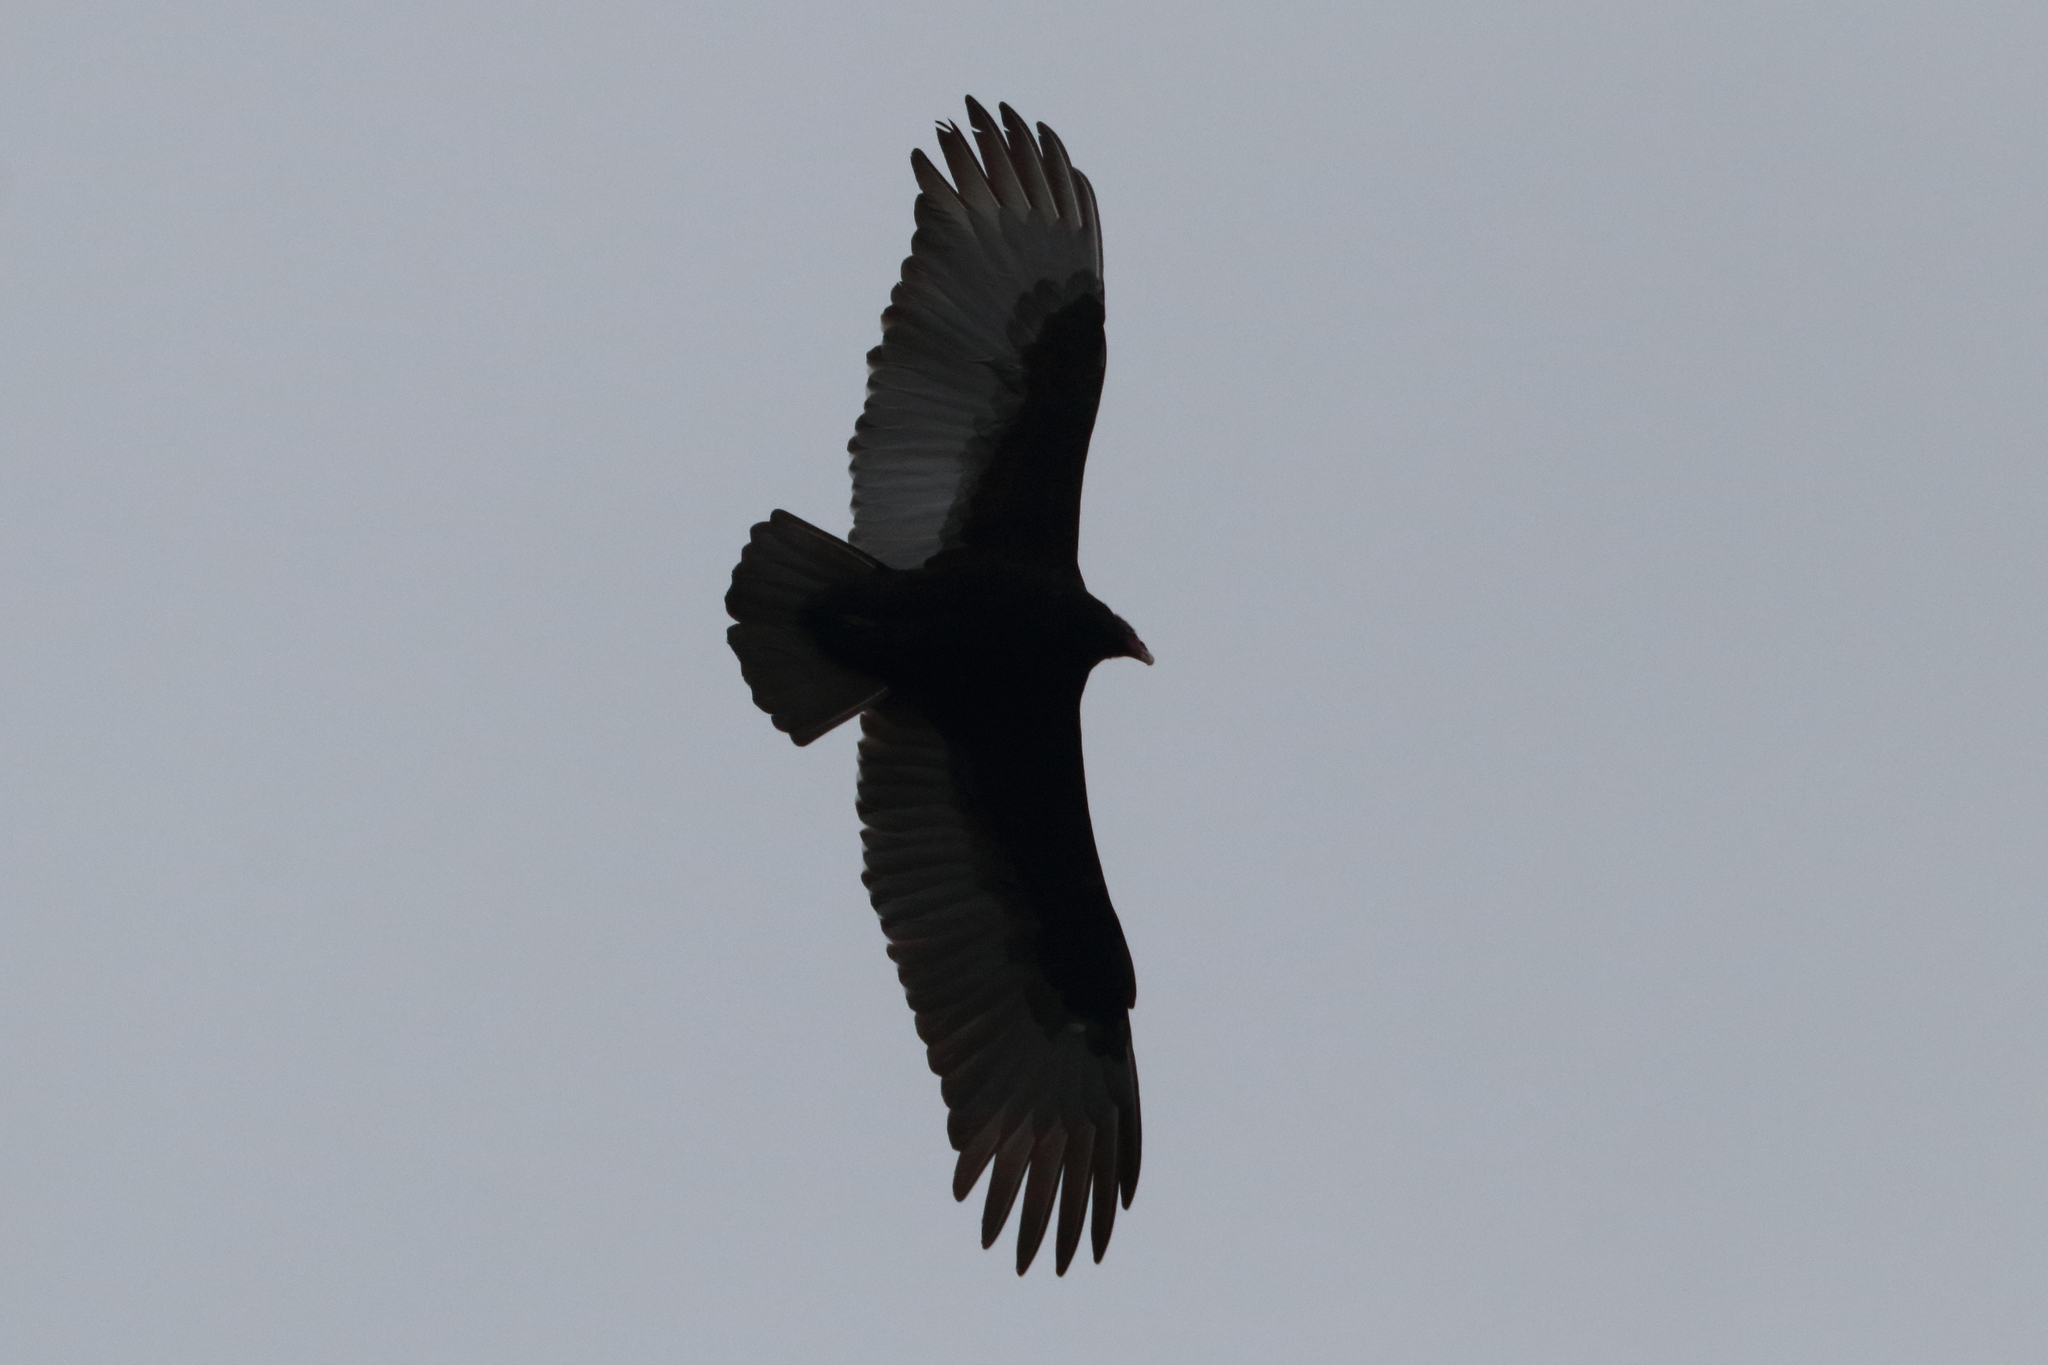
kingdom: Animalia
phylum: Chordata
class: Aves
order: Accipitriformes
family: Cathartidae
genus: Cathartes
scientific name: Cathartes aura
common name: Turkey vulture
